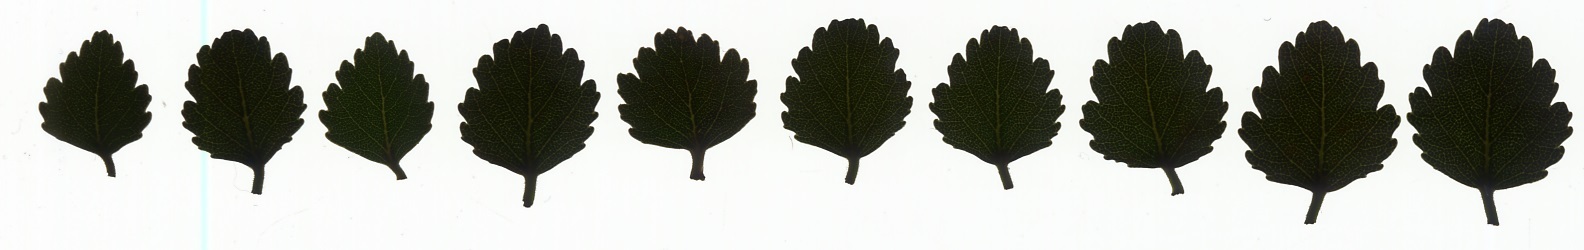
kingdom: Plantae
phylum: Tracheophyta
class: Magnoliopsida
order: Fagales
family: Nothofagaceae
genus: Nothofagus
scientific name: Nothofagus menziesii
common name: Silver beech
